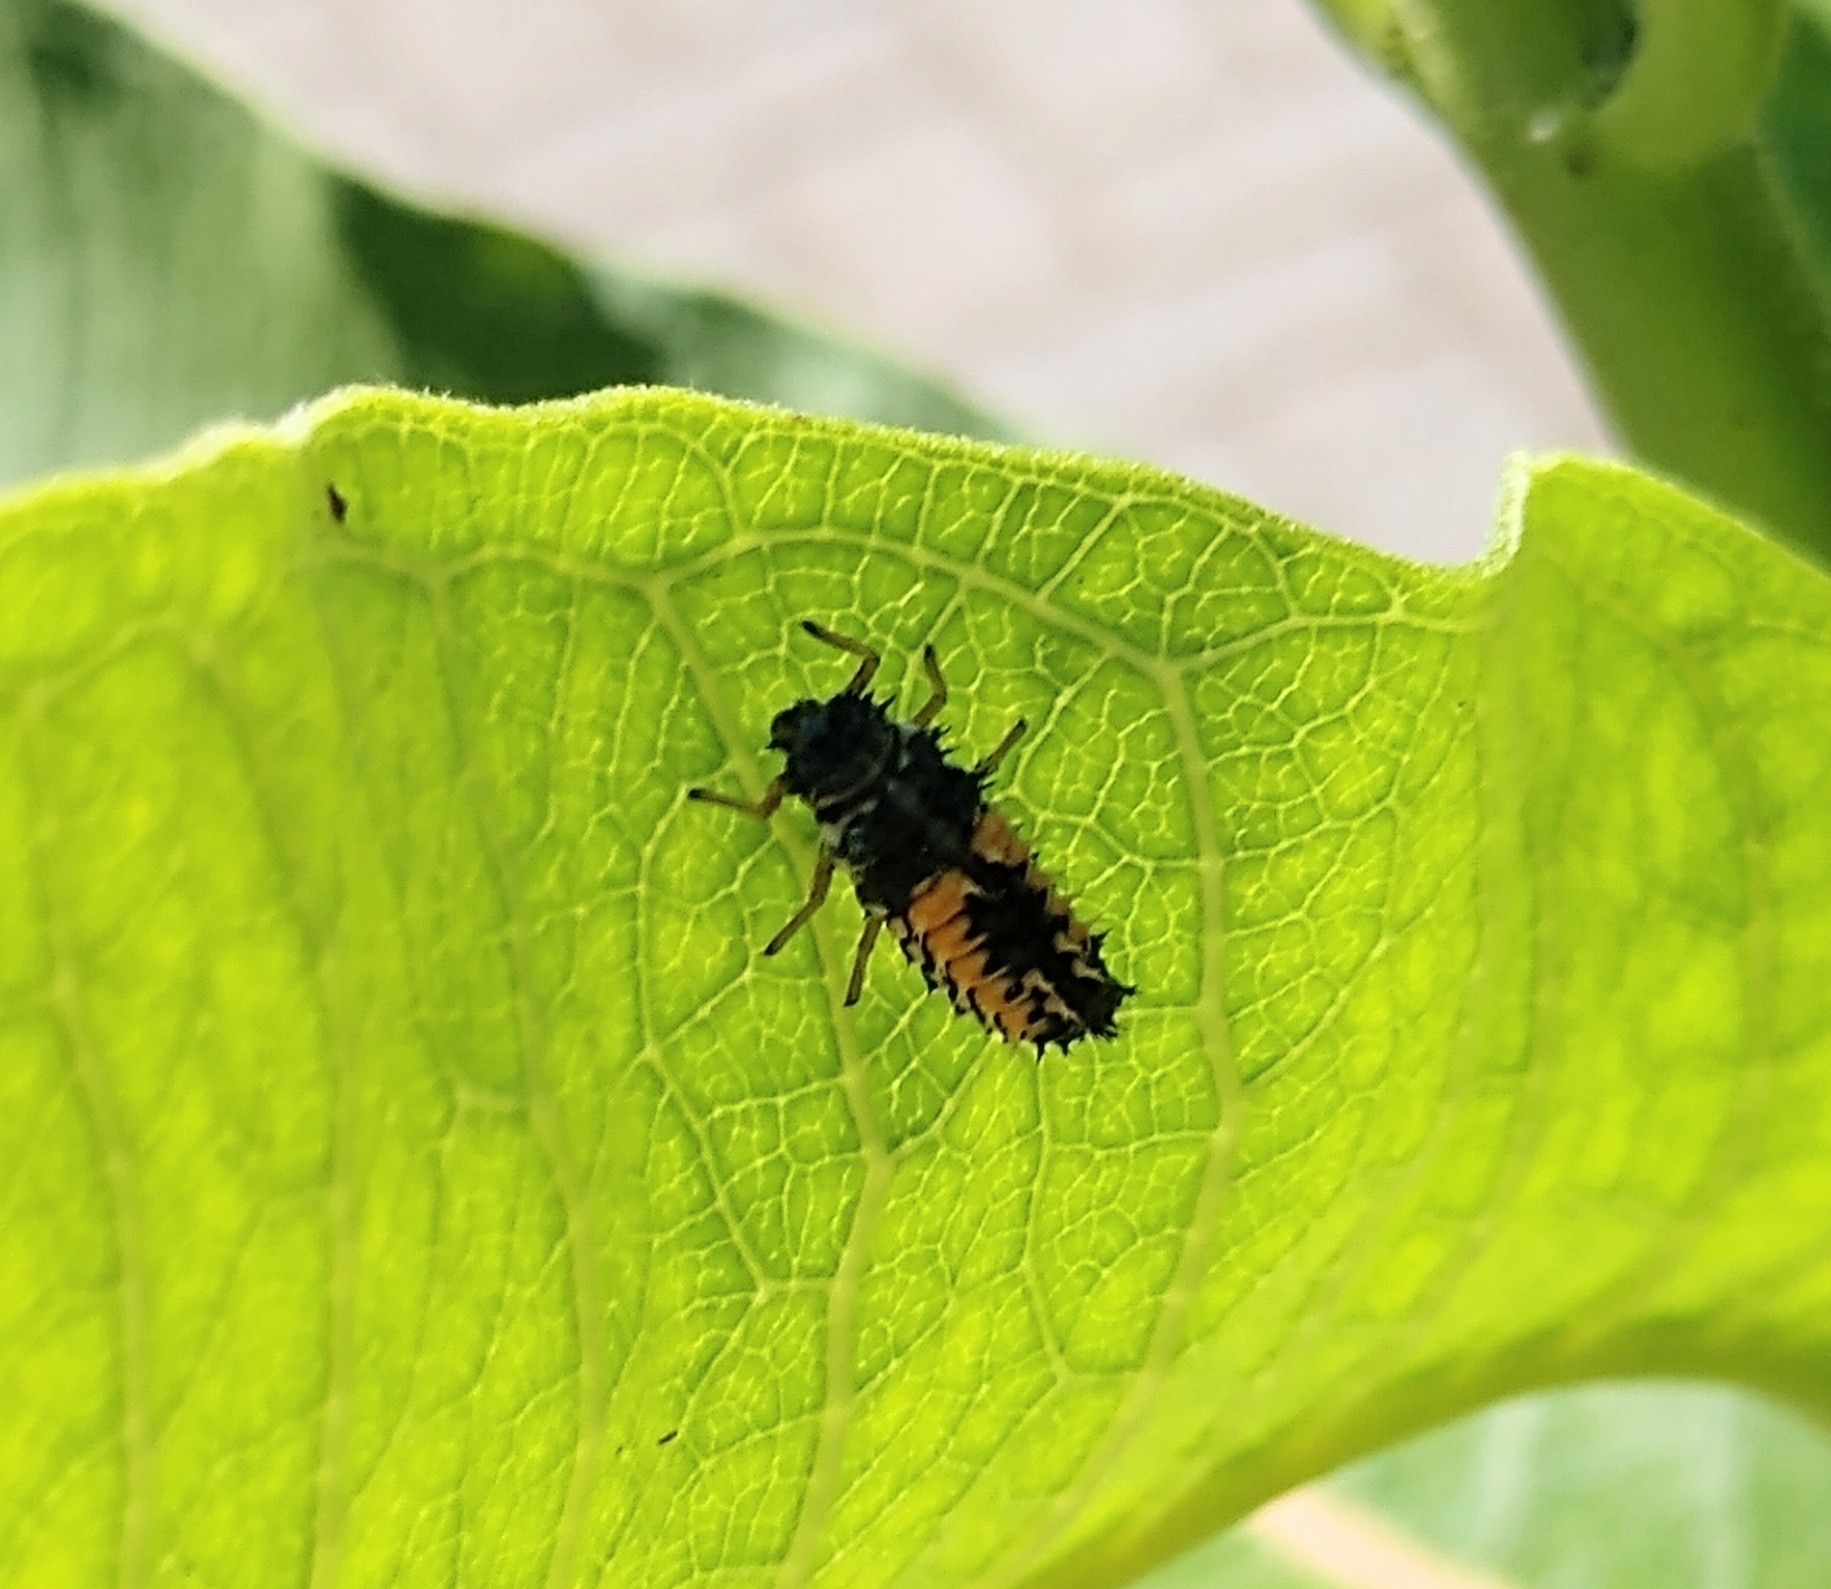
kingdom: Animalia
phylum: Arthropoda
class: Insecta
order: Coleoptera
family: Coccinellidae
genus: Harmonia
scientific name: Harmonia axyridis
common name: Harlequin ladybird
